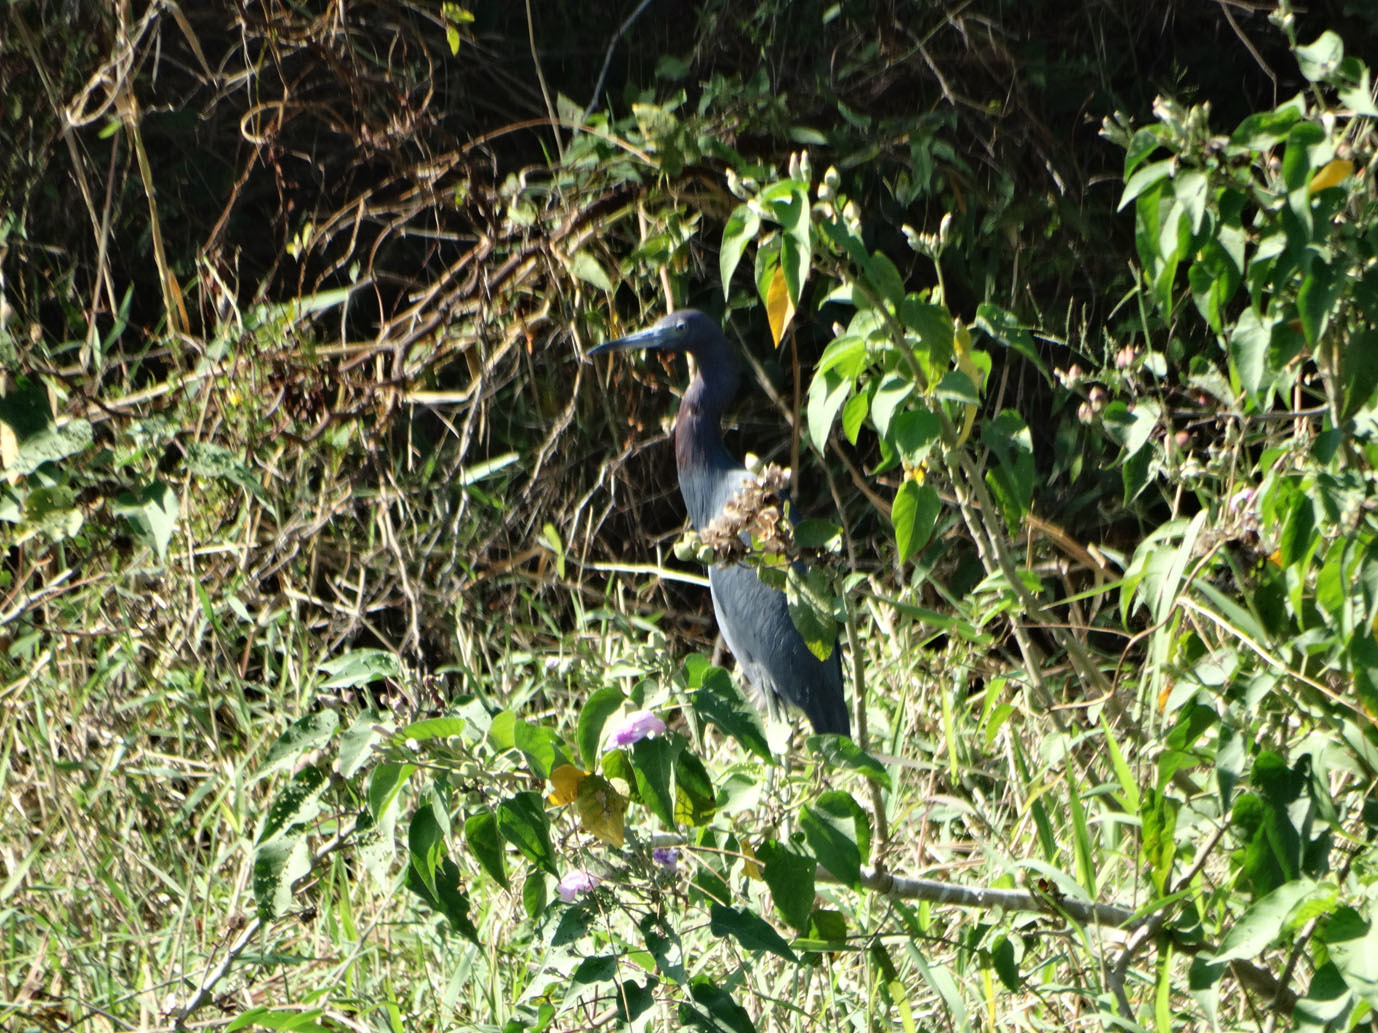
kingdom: Animalia
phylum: Chordata
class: Aves
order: Pelecaniformes
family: Ardeidae
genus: Egretta
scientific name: Egretta caerulea
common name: Little blue heron
